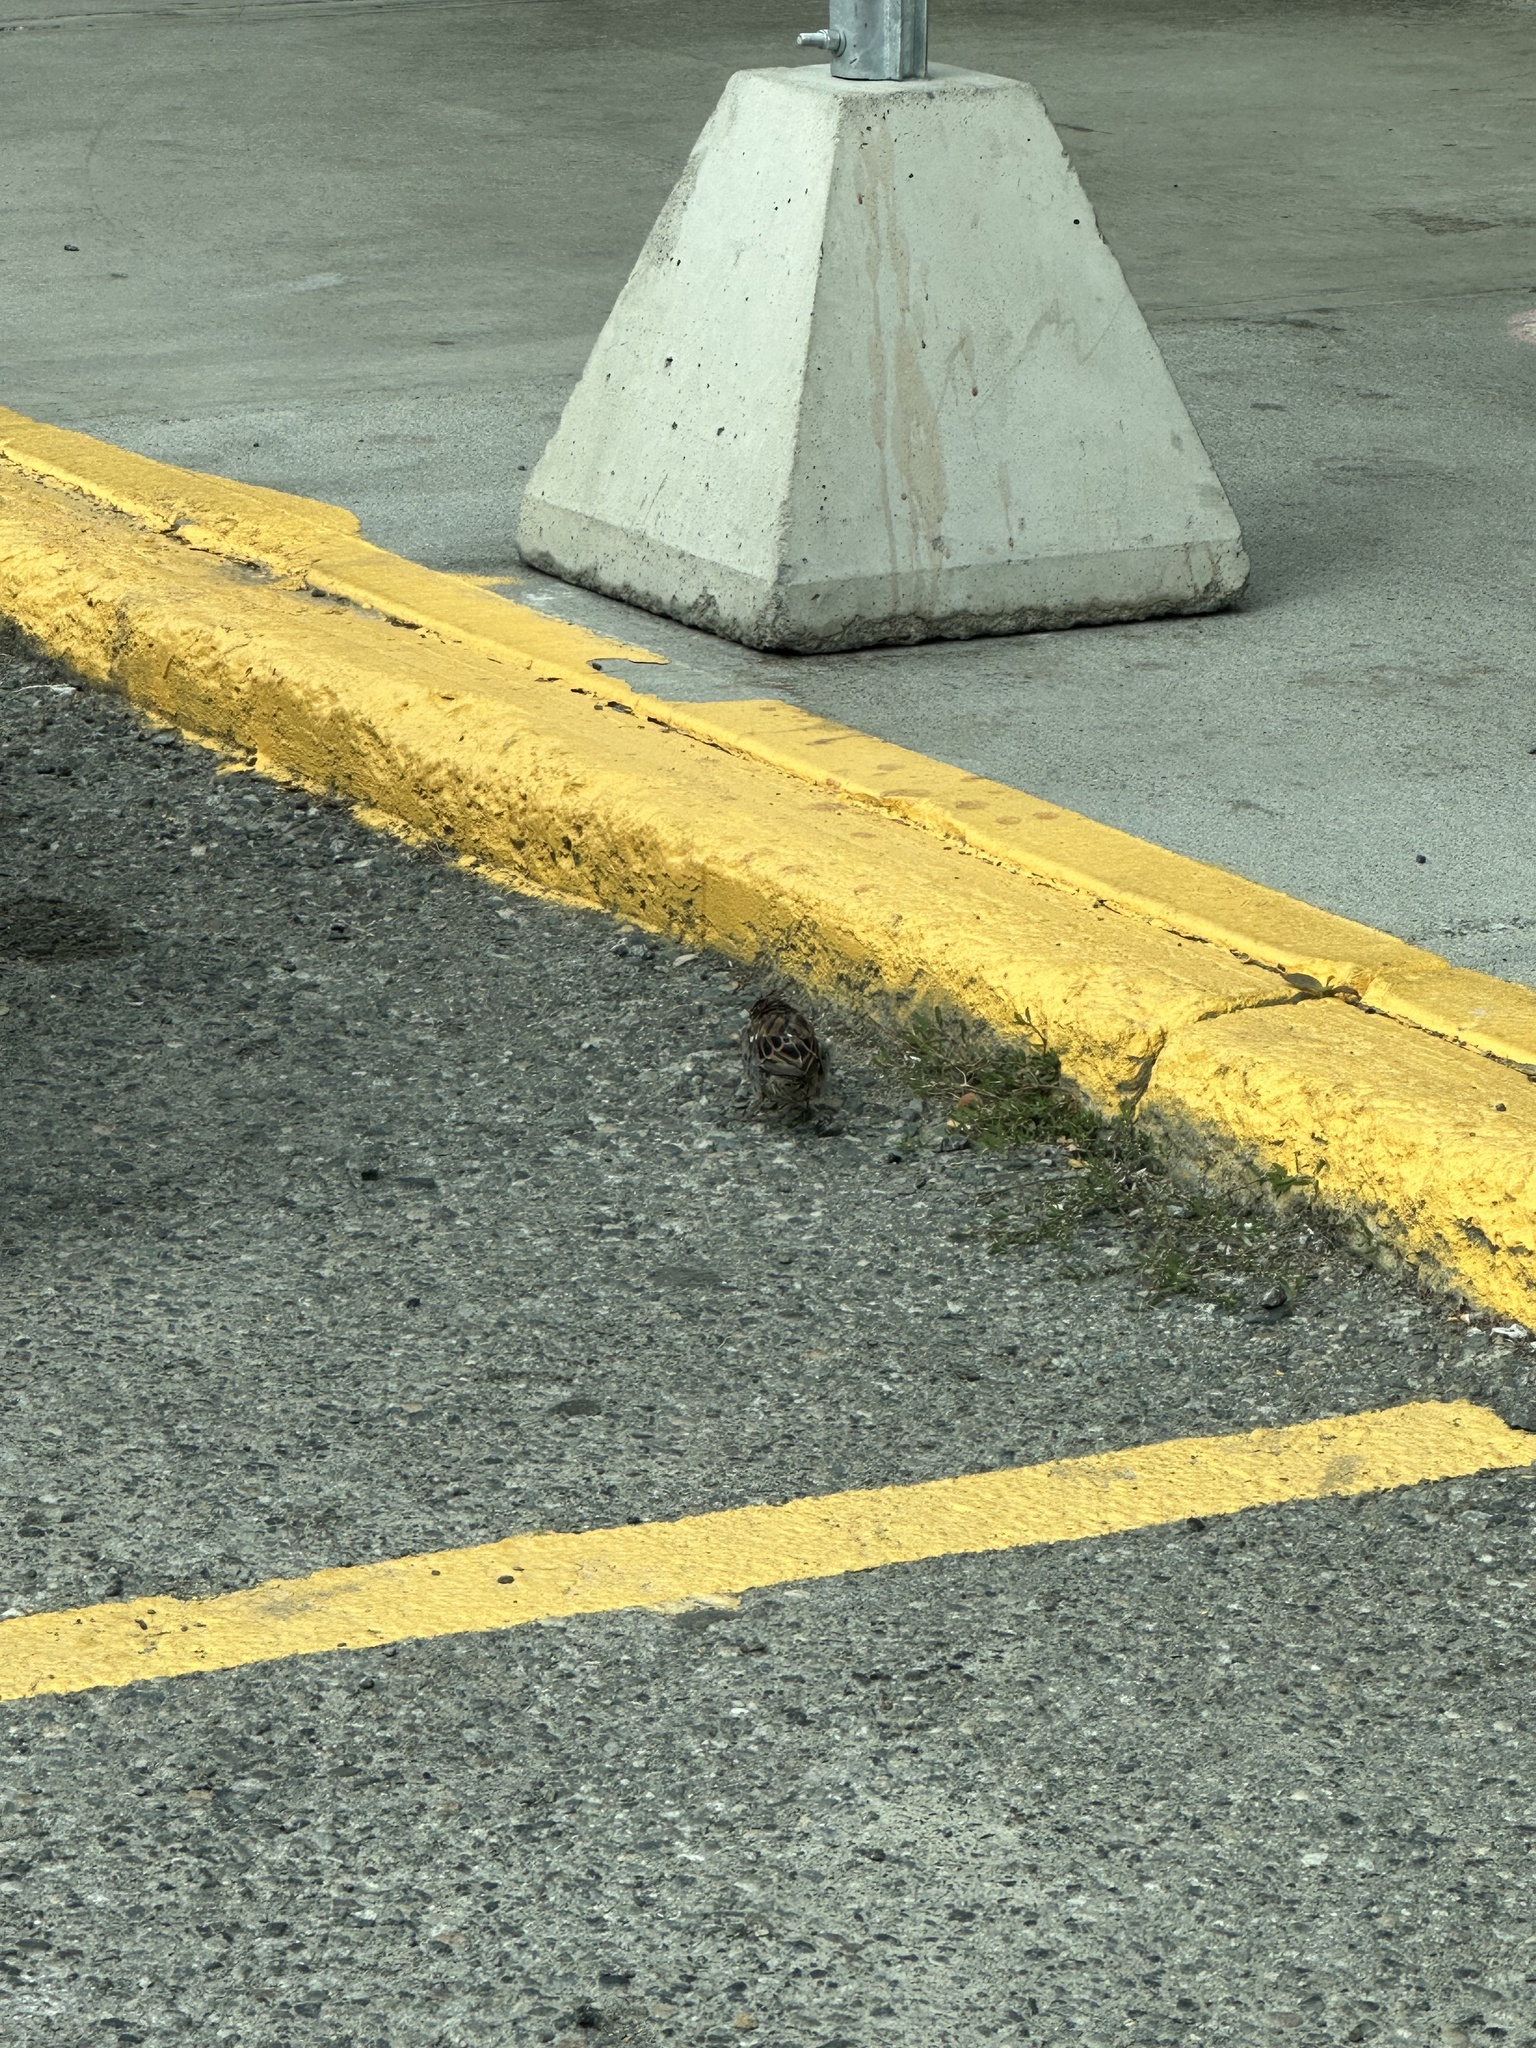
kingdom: Animalia
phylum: Chordata
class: Aves
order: Passeriformes
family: Passeridae
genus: Passer
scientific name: Passer domesticus
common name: House sparrow
